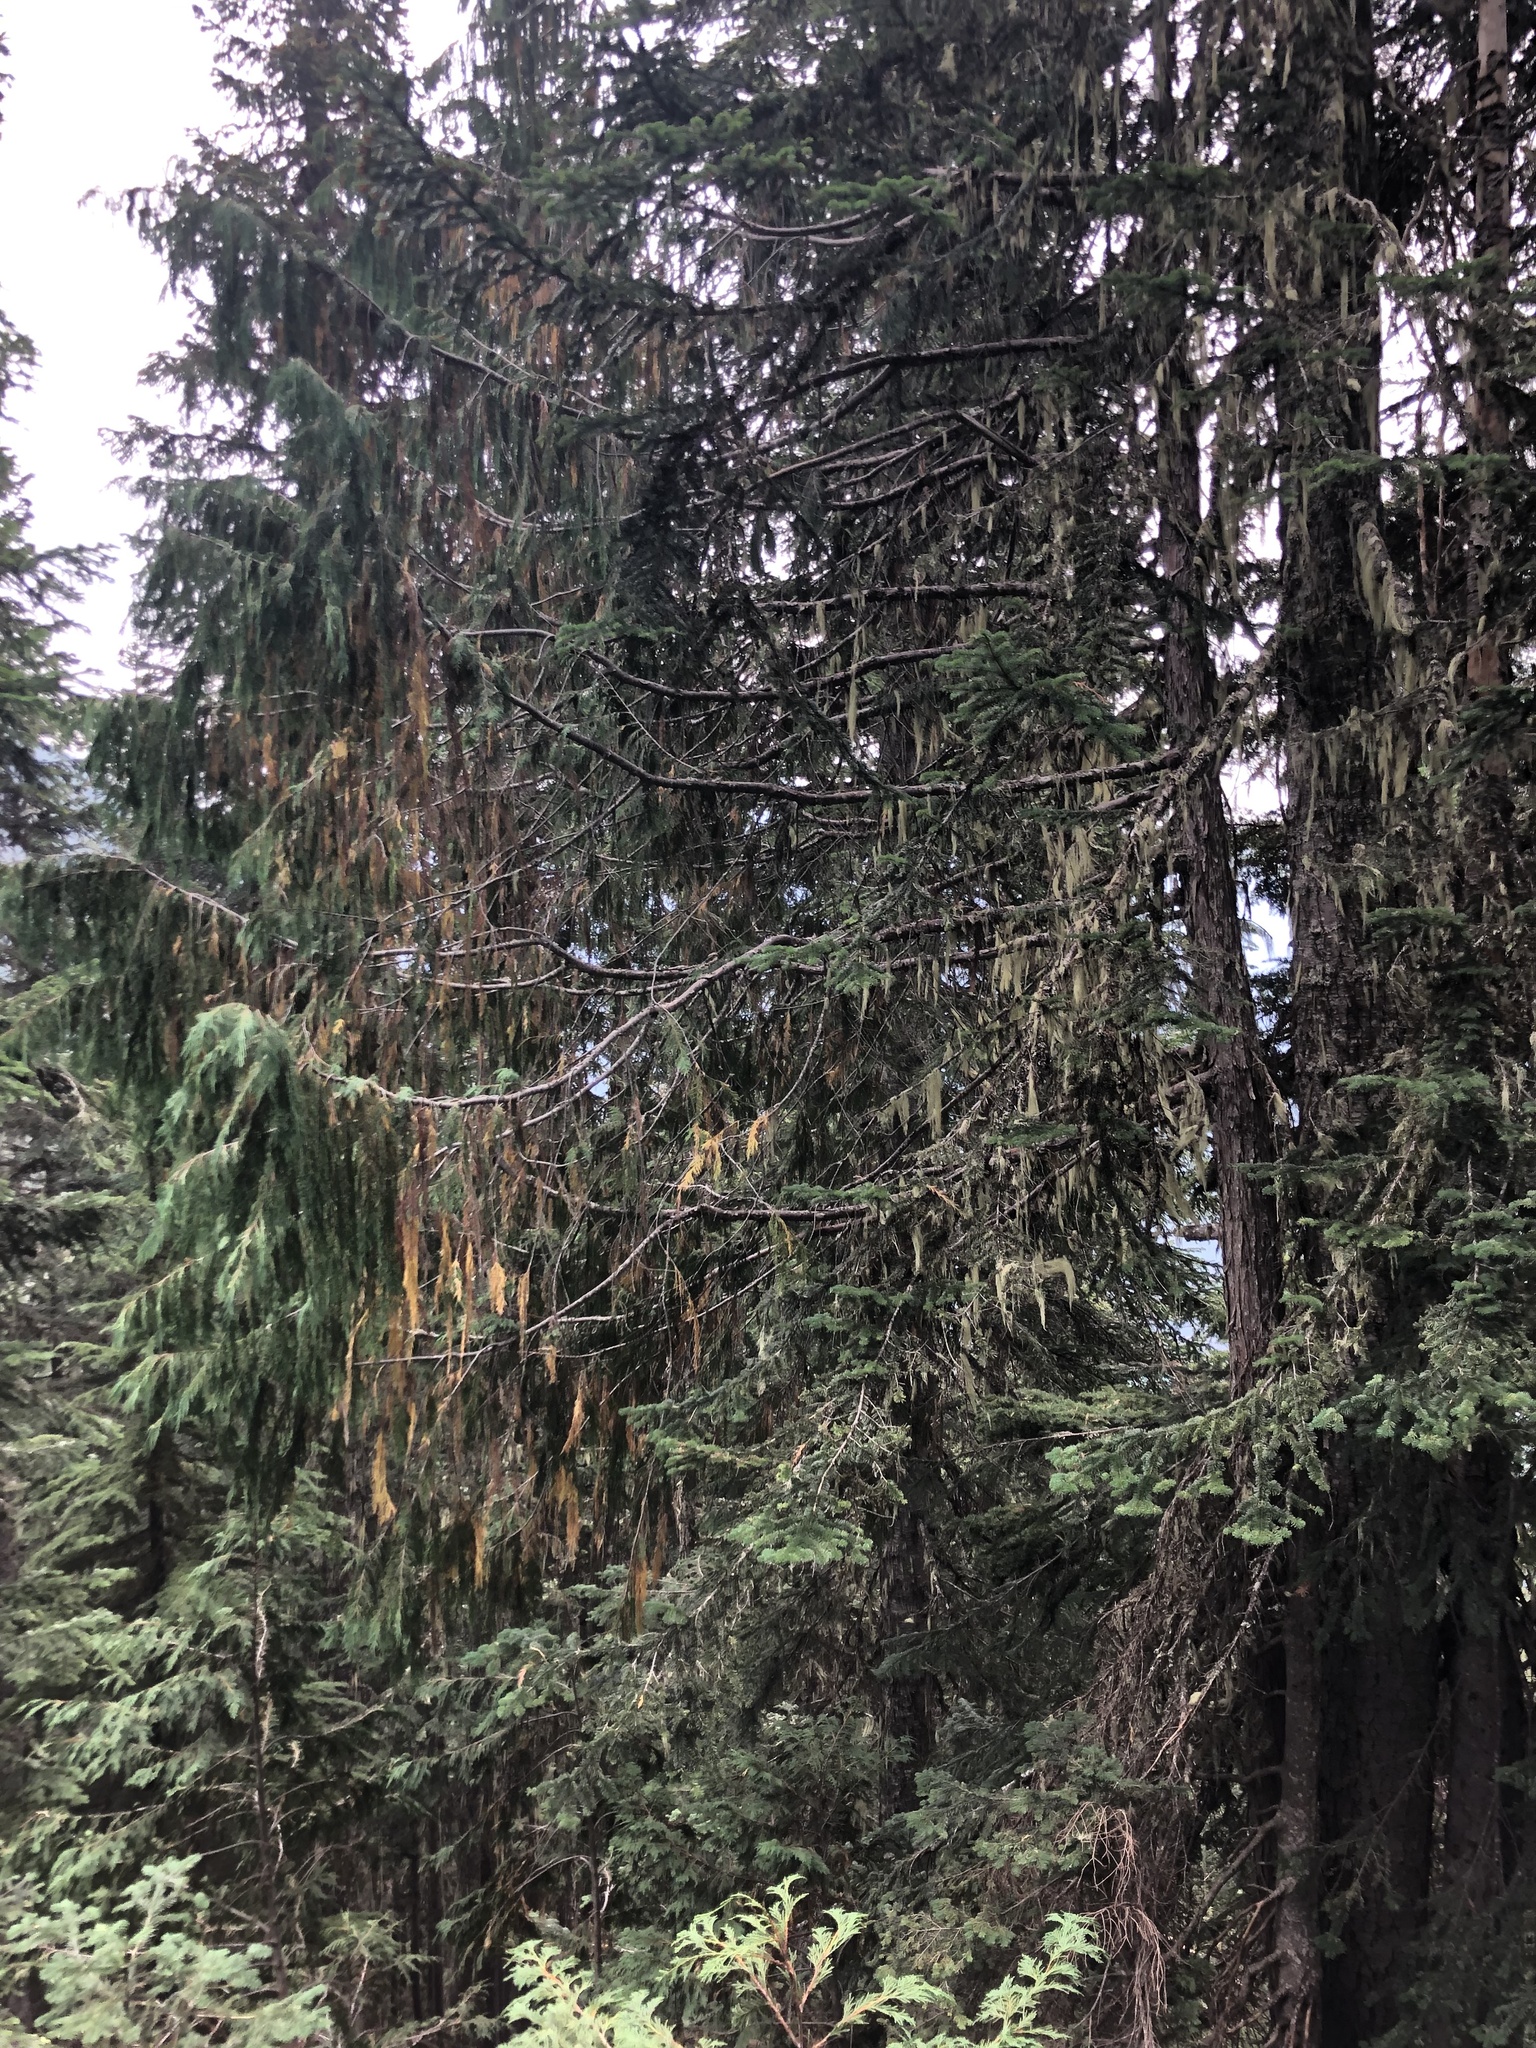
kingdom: Plantae
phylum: Tracheophyta
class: Pinopsida
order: Pinales
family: Cupressaceae
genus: Xanthocyparis
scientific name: Xanthocyparis nootkatensis
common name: Nootka cypress
